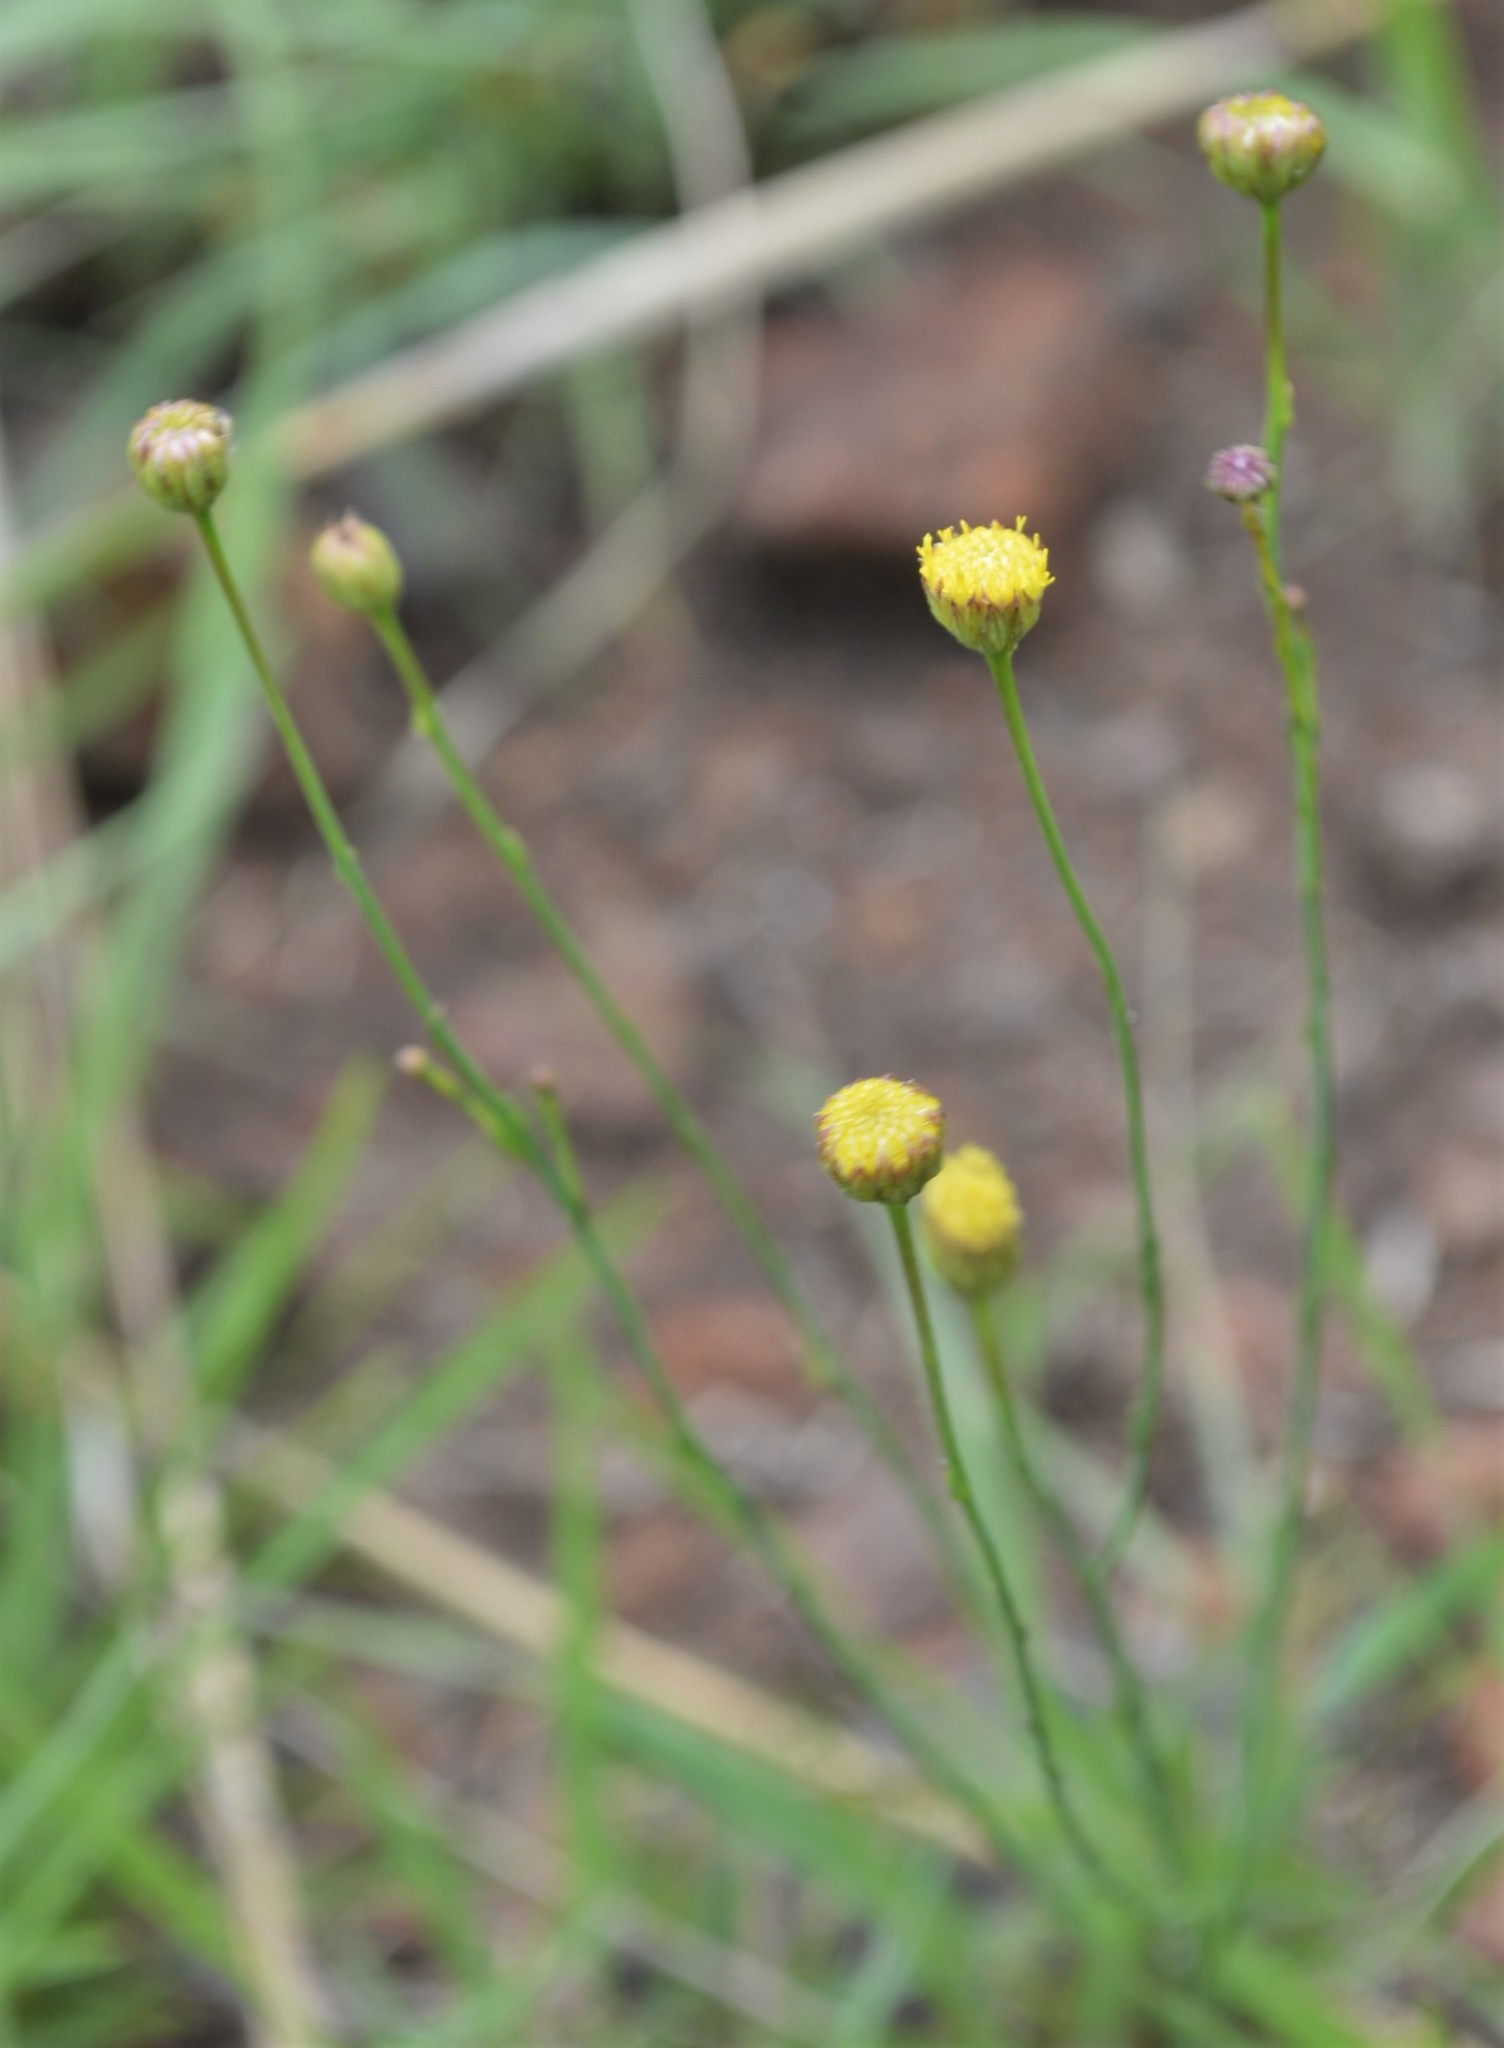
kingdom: Plantae
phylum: Tracheophyta
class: Magnoliopsida
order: Asterales
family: Asteraceae
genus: Nolletia
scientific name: Nolletia rarifolia
